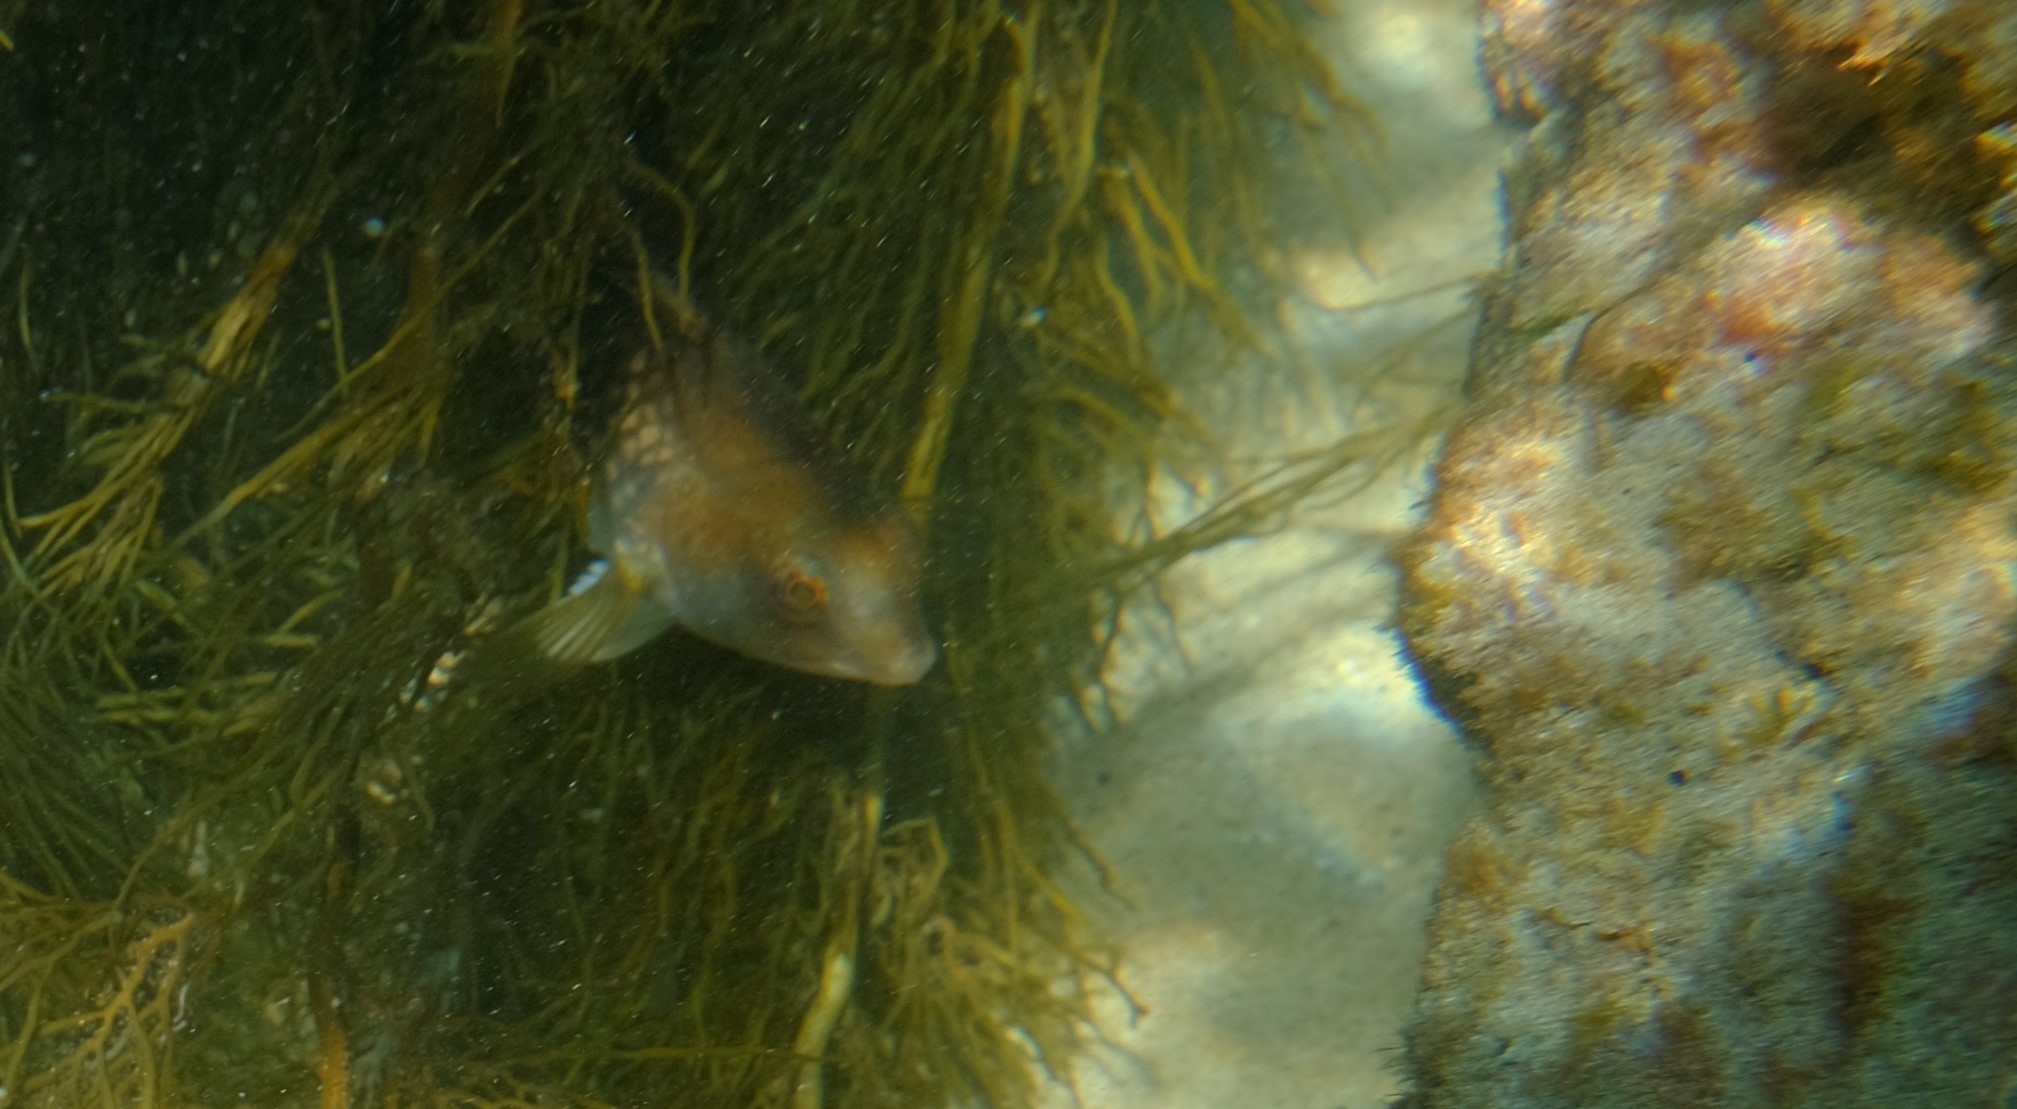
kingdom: Animalia
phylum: Chordata
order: Perciformes
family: Labridae
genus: Notolabrus
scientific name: Notolabrus tetricus
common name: Blue-throated parrotfish
